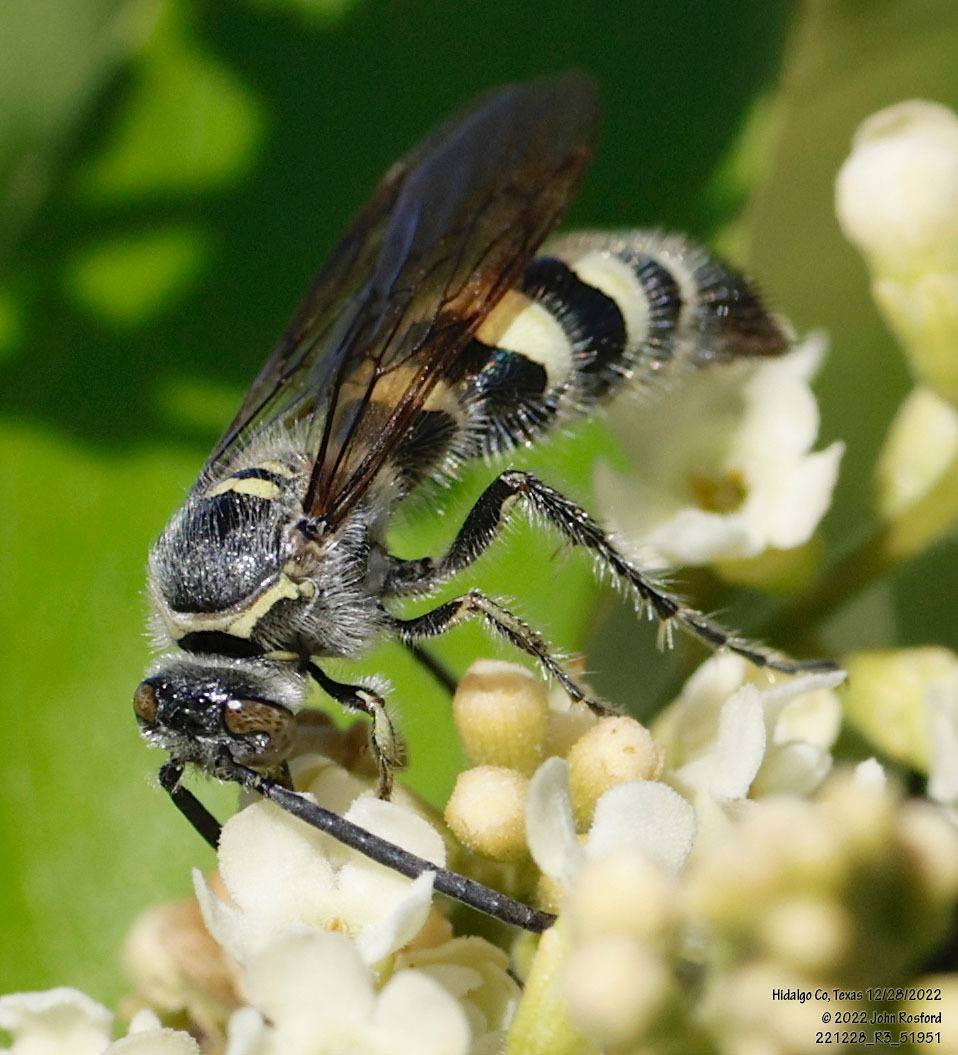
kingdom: Animalia
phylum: Arthropoda
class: Insecta
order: Hymenoptera
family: Scoliidae
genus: Dielis
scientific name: Dielis tolteca
